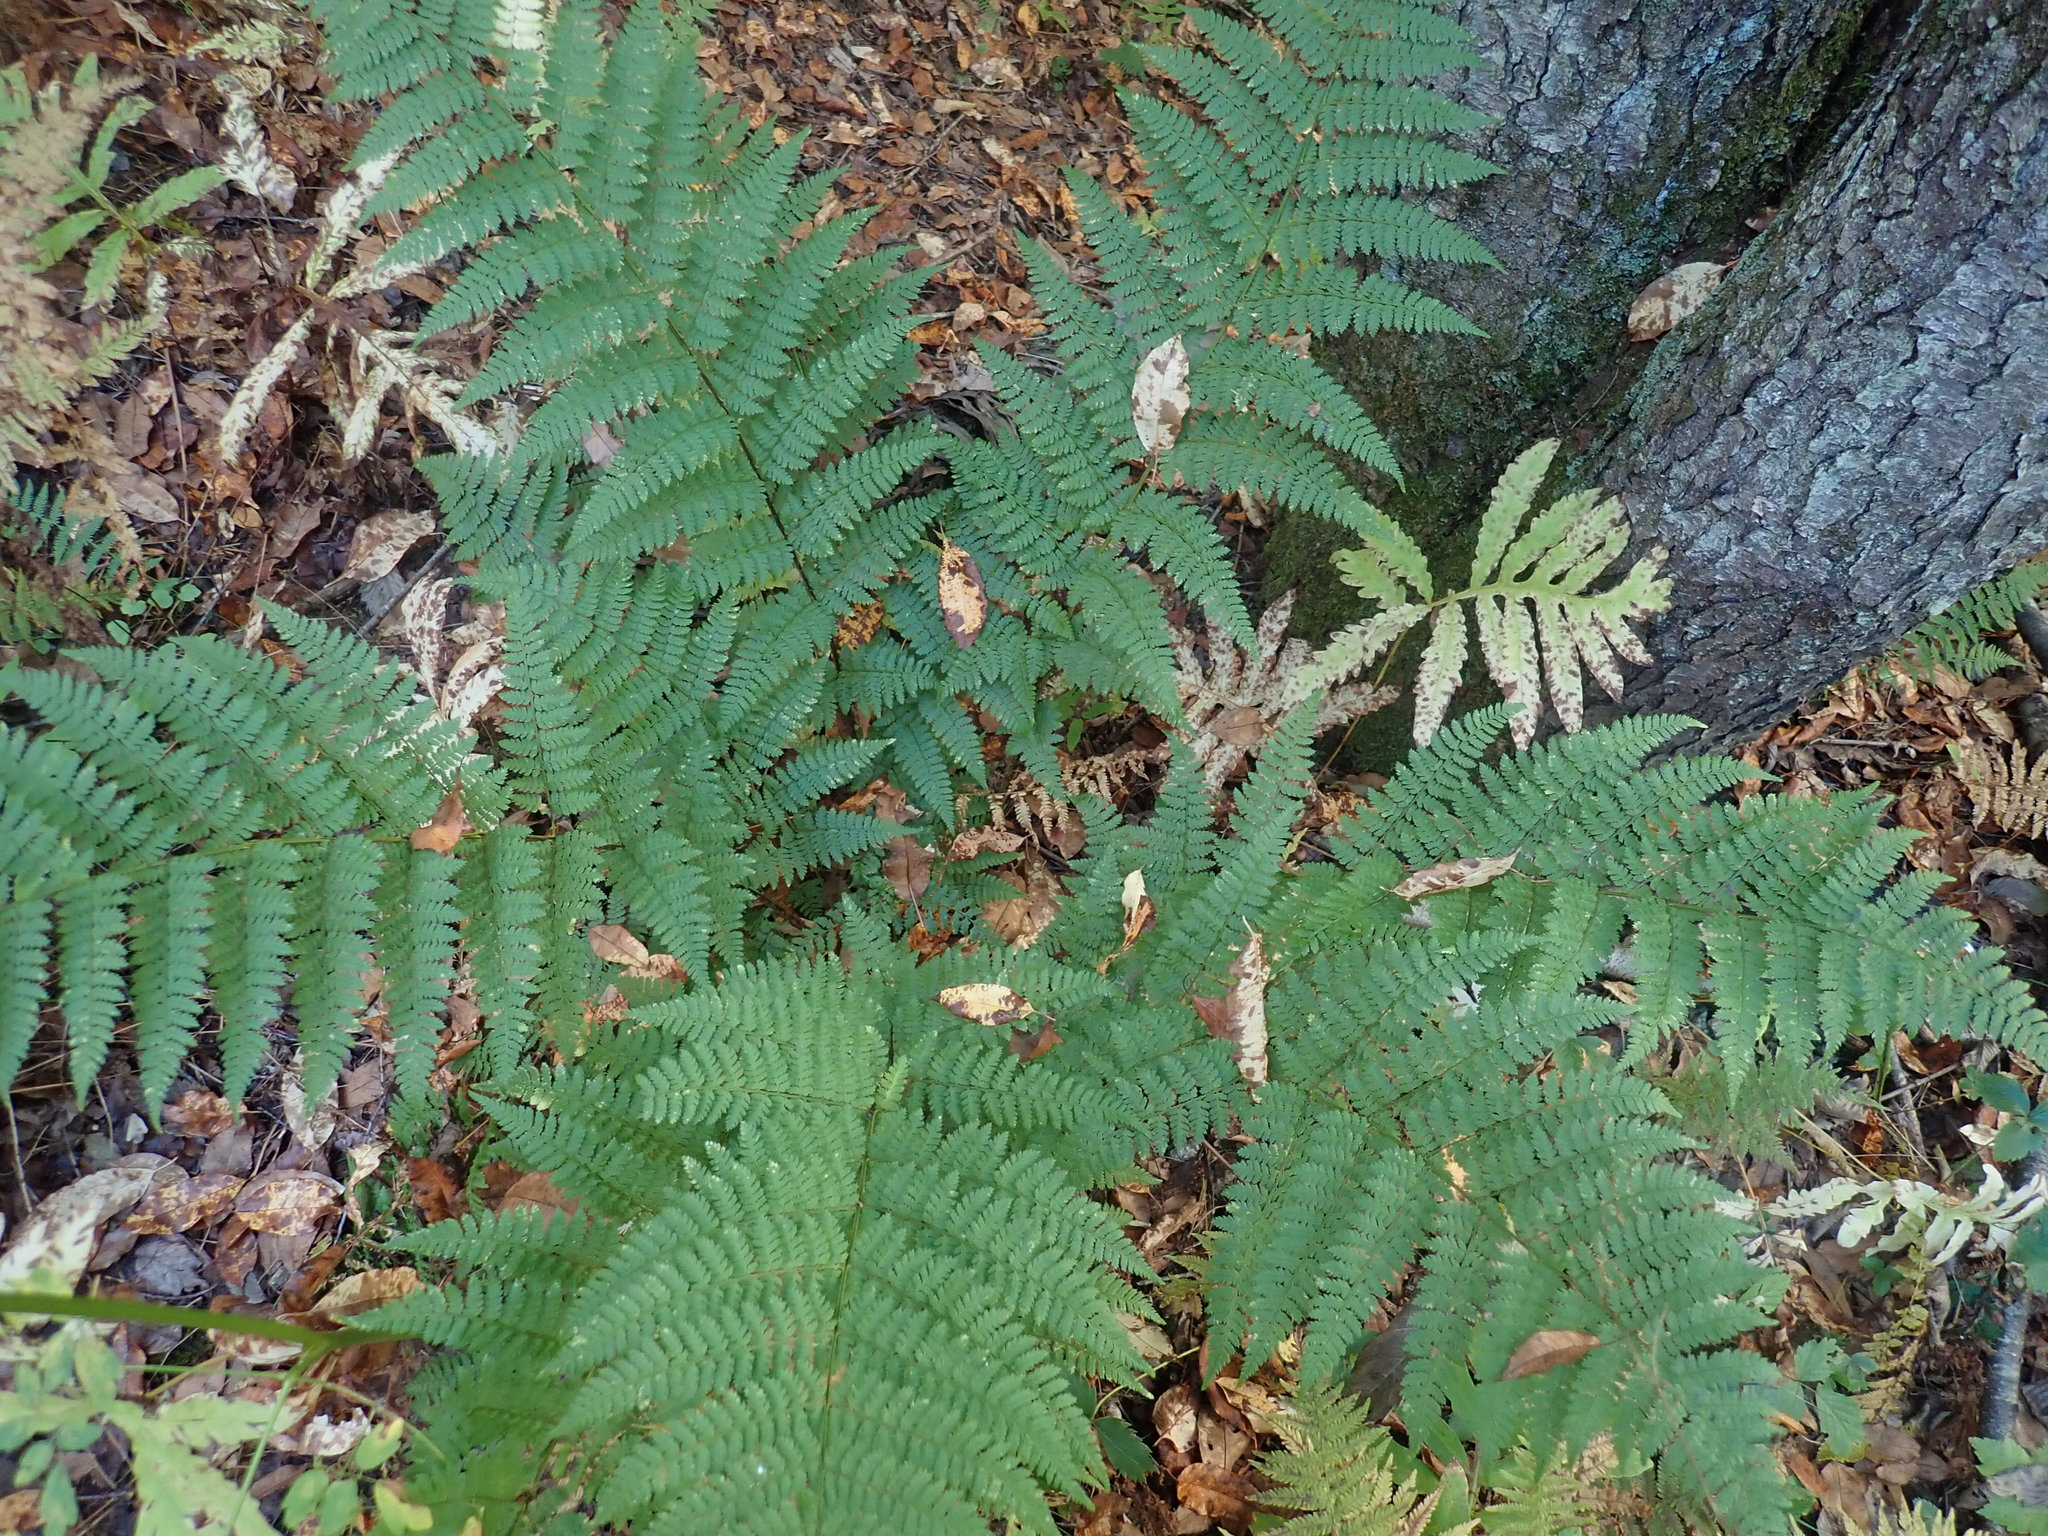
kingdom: Plantae
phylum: Tracheophyta
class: Polypodiopsida
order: Polypodiales
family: Dryopteridaceae
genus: Dryopteris
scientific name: Dryopteris intermedia
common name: Evergreen wood fern
